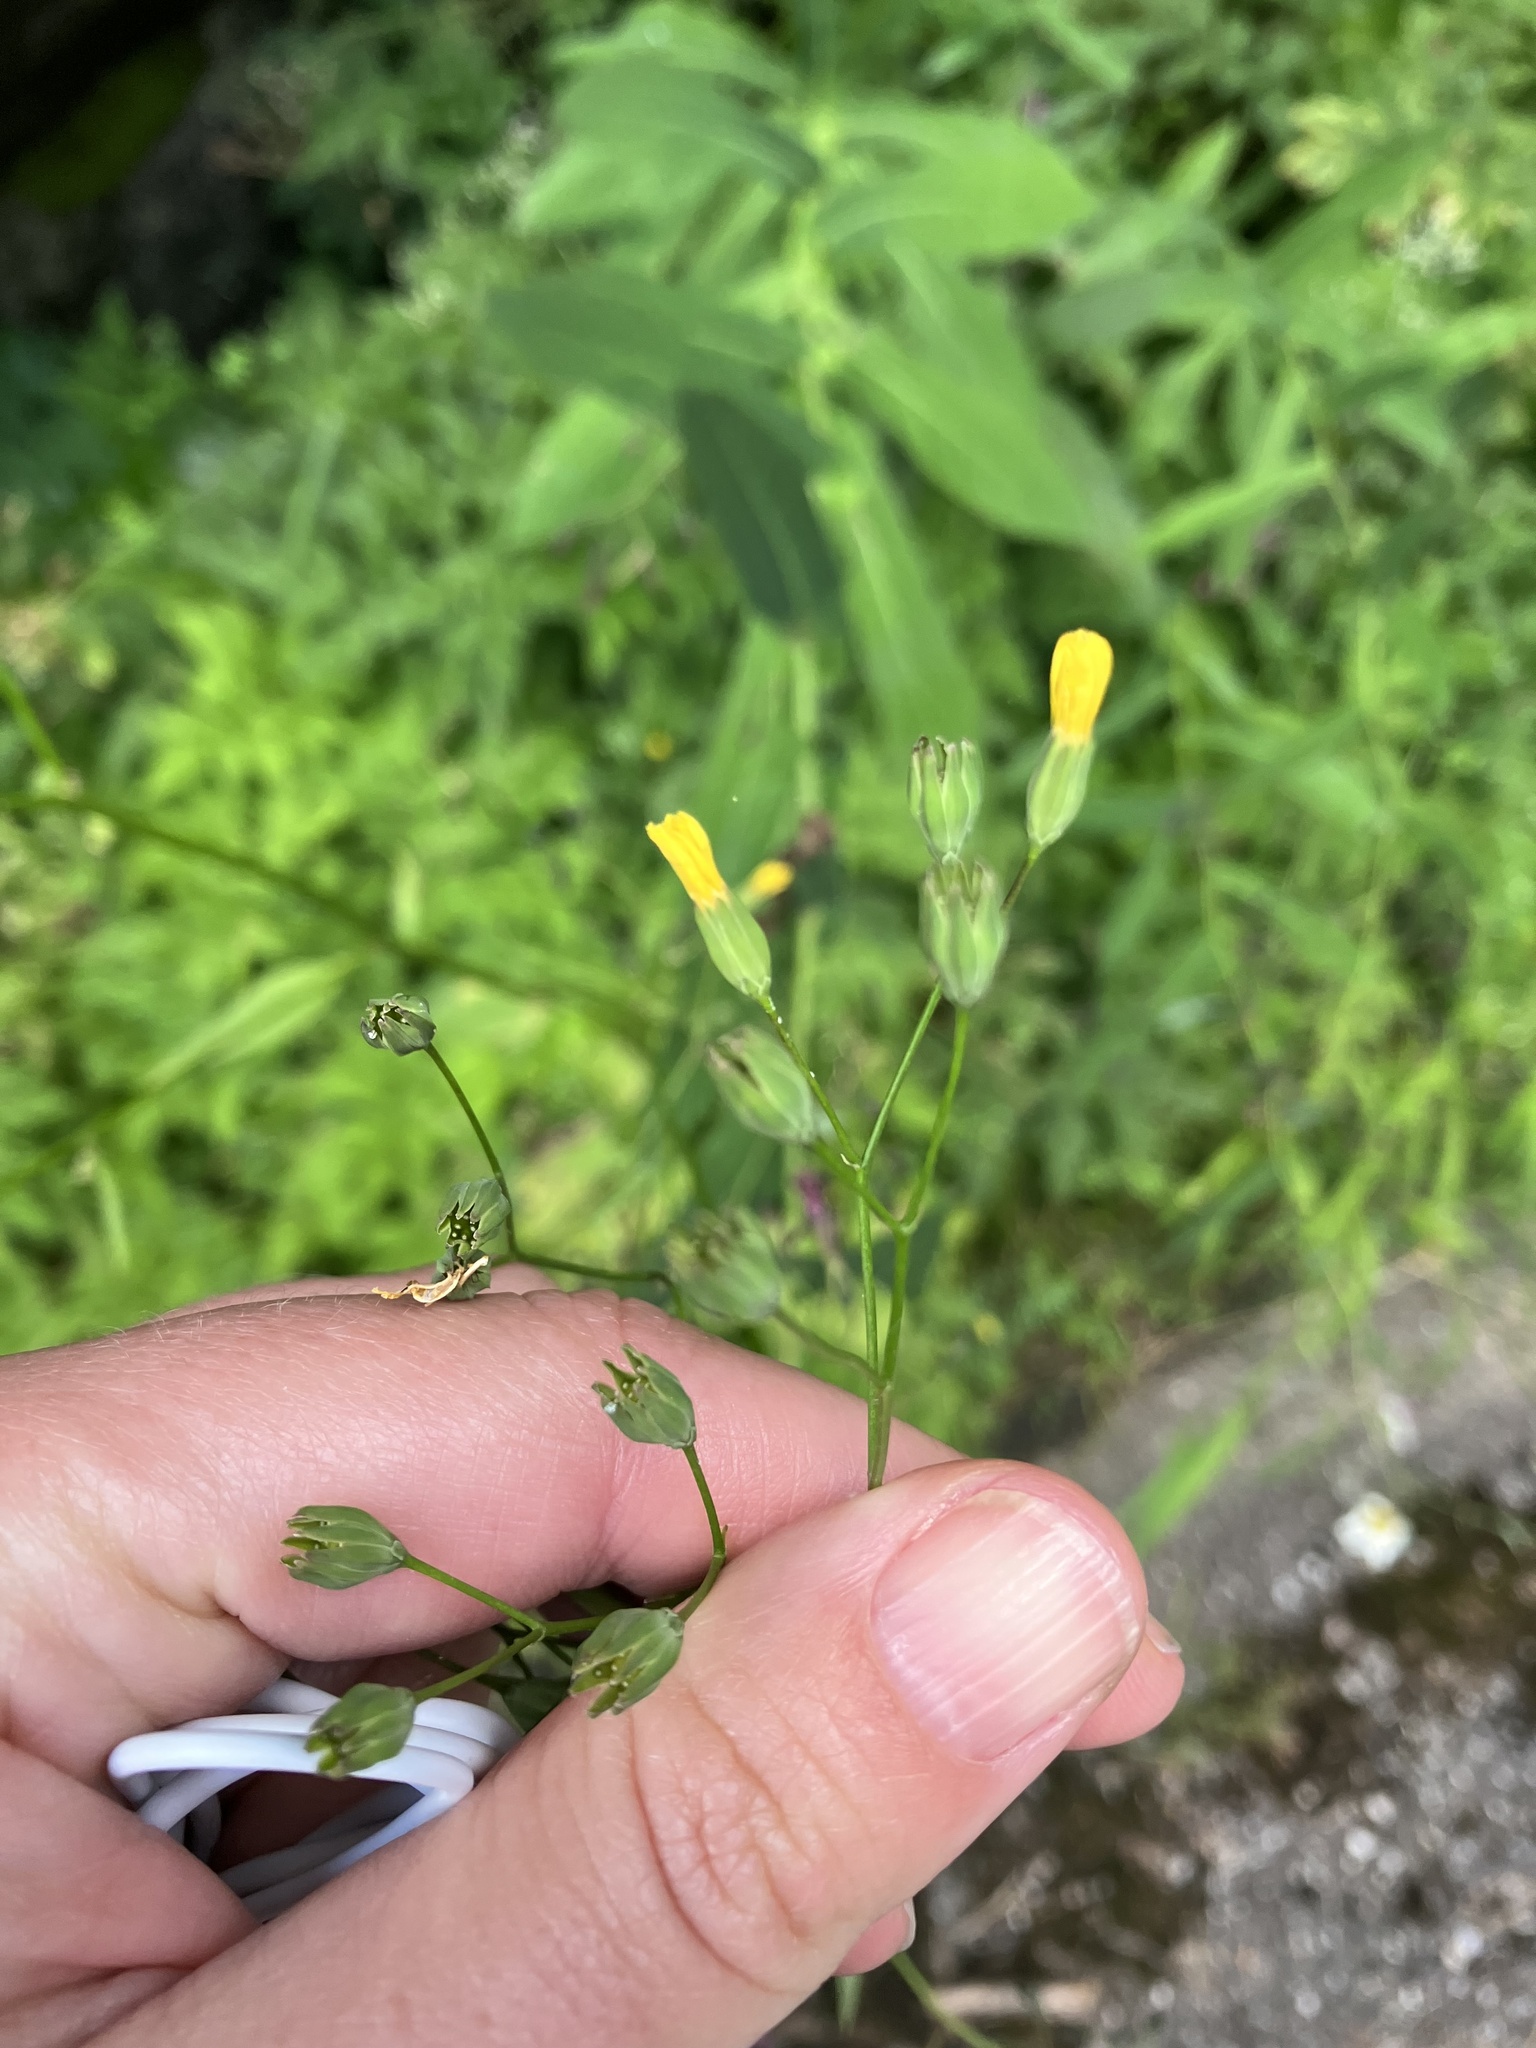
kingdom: Plantae
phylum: Tracheophyta
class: Magnoliopsida
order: Asterales
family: Asteraceae
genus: Lapsana
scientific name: Lapsana communis
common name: Nipplewort
